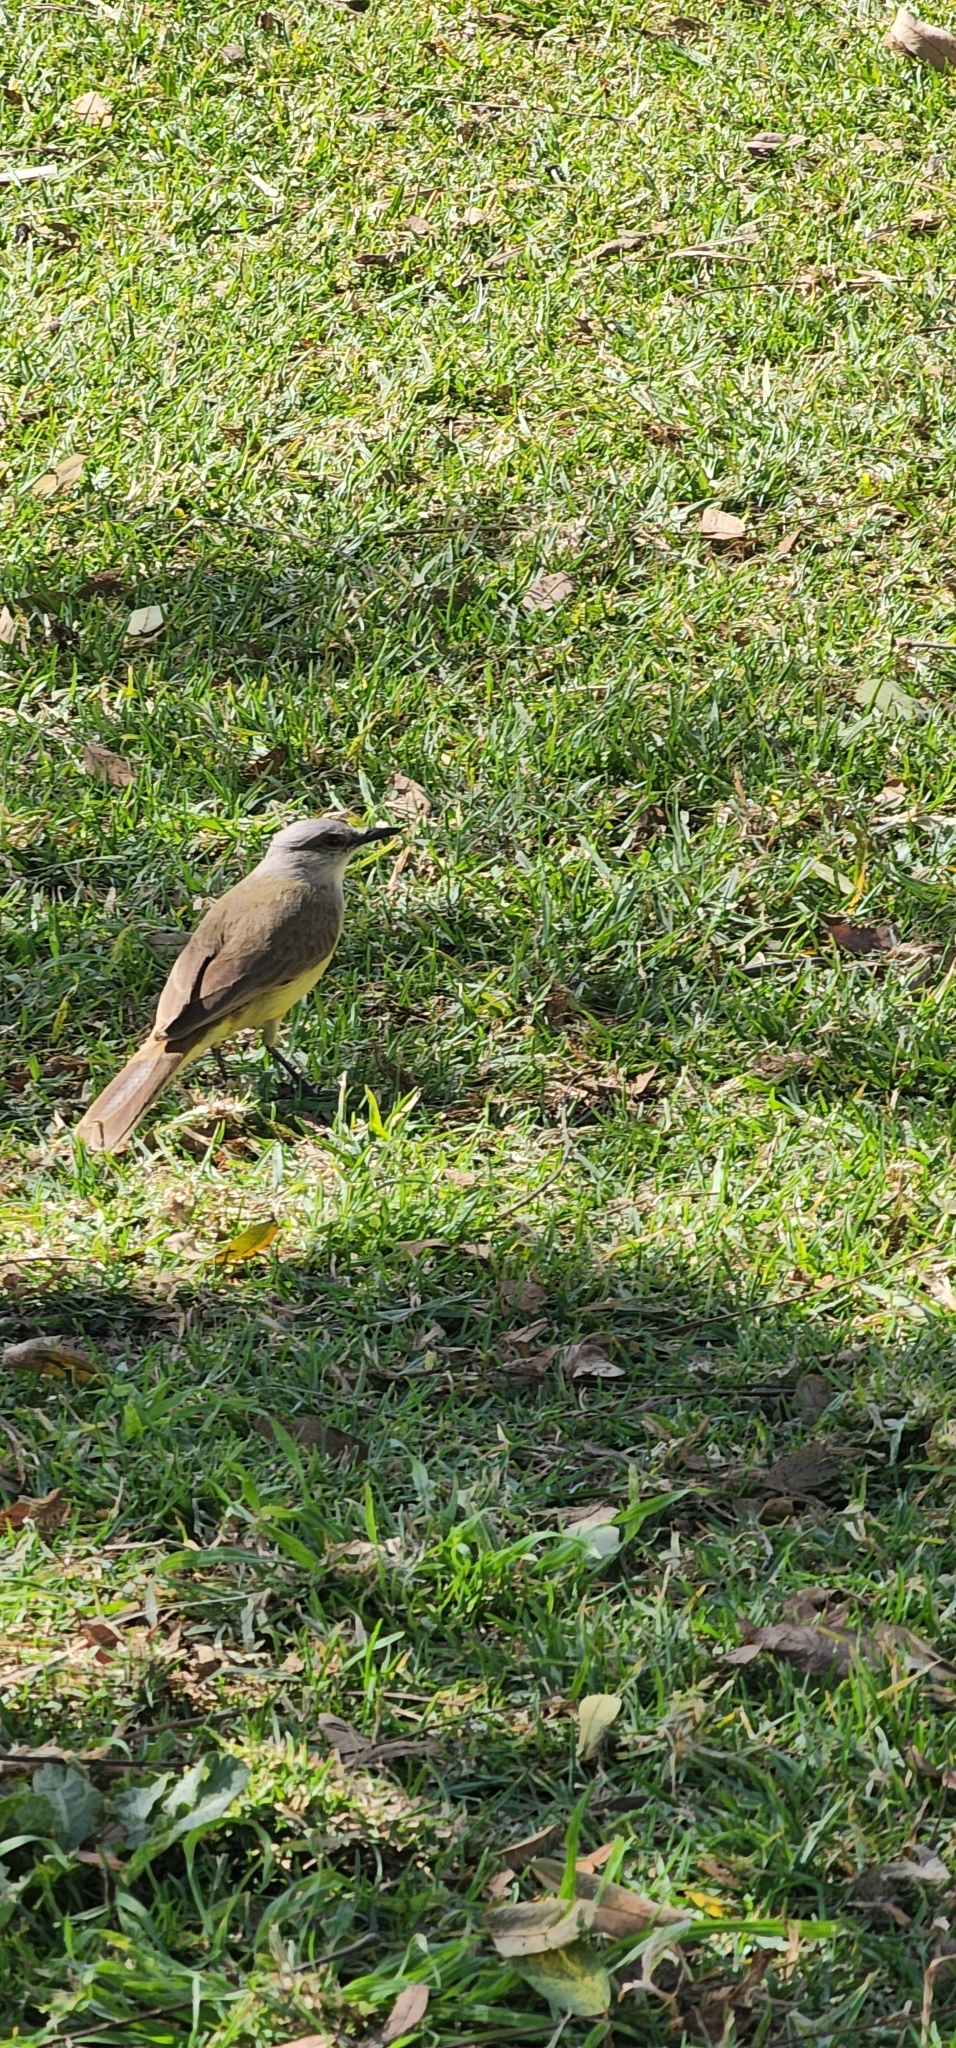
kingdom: Animalia
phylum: Chordata
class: Aves
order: Passeriformes
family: Tyrannidae
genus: Machetornis
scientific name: Machetornis rixosa
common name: Cattle tyrant
